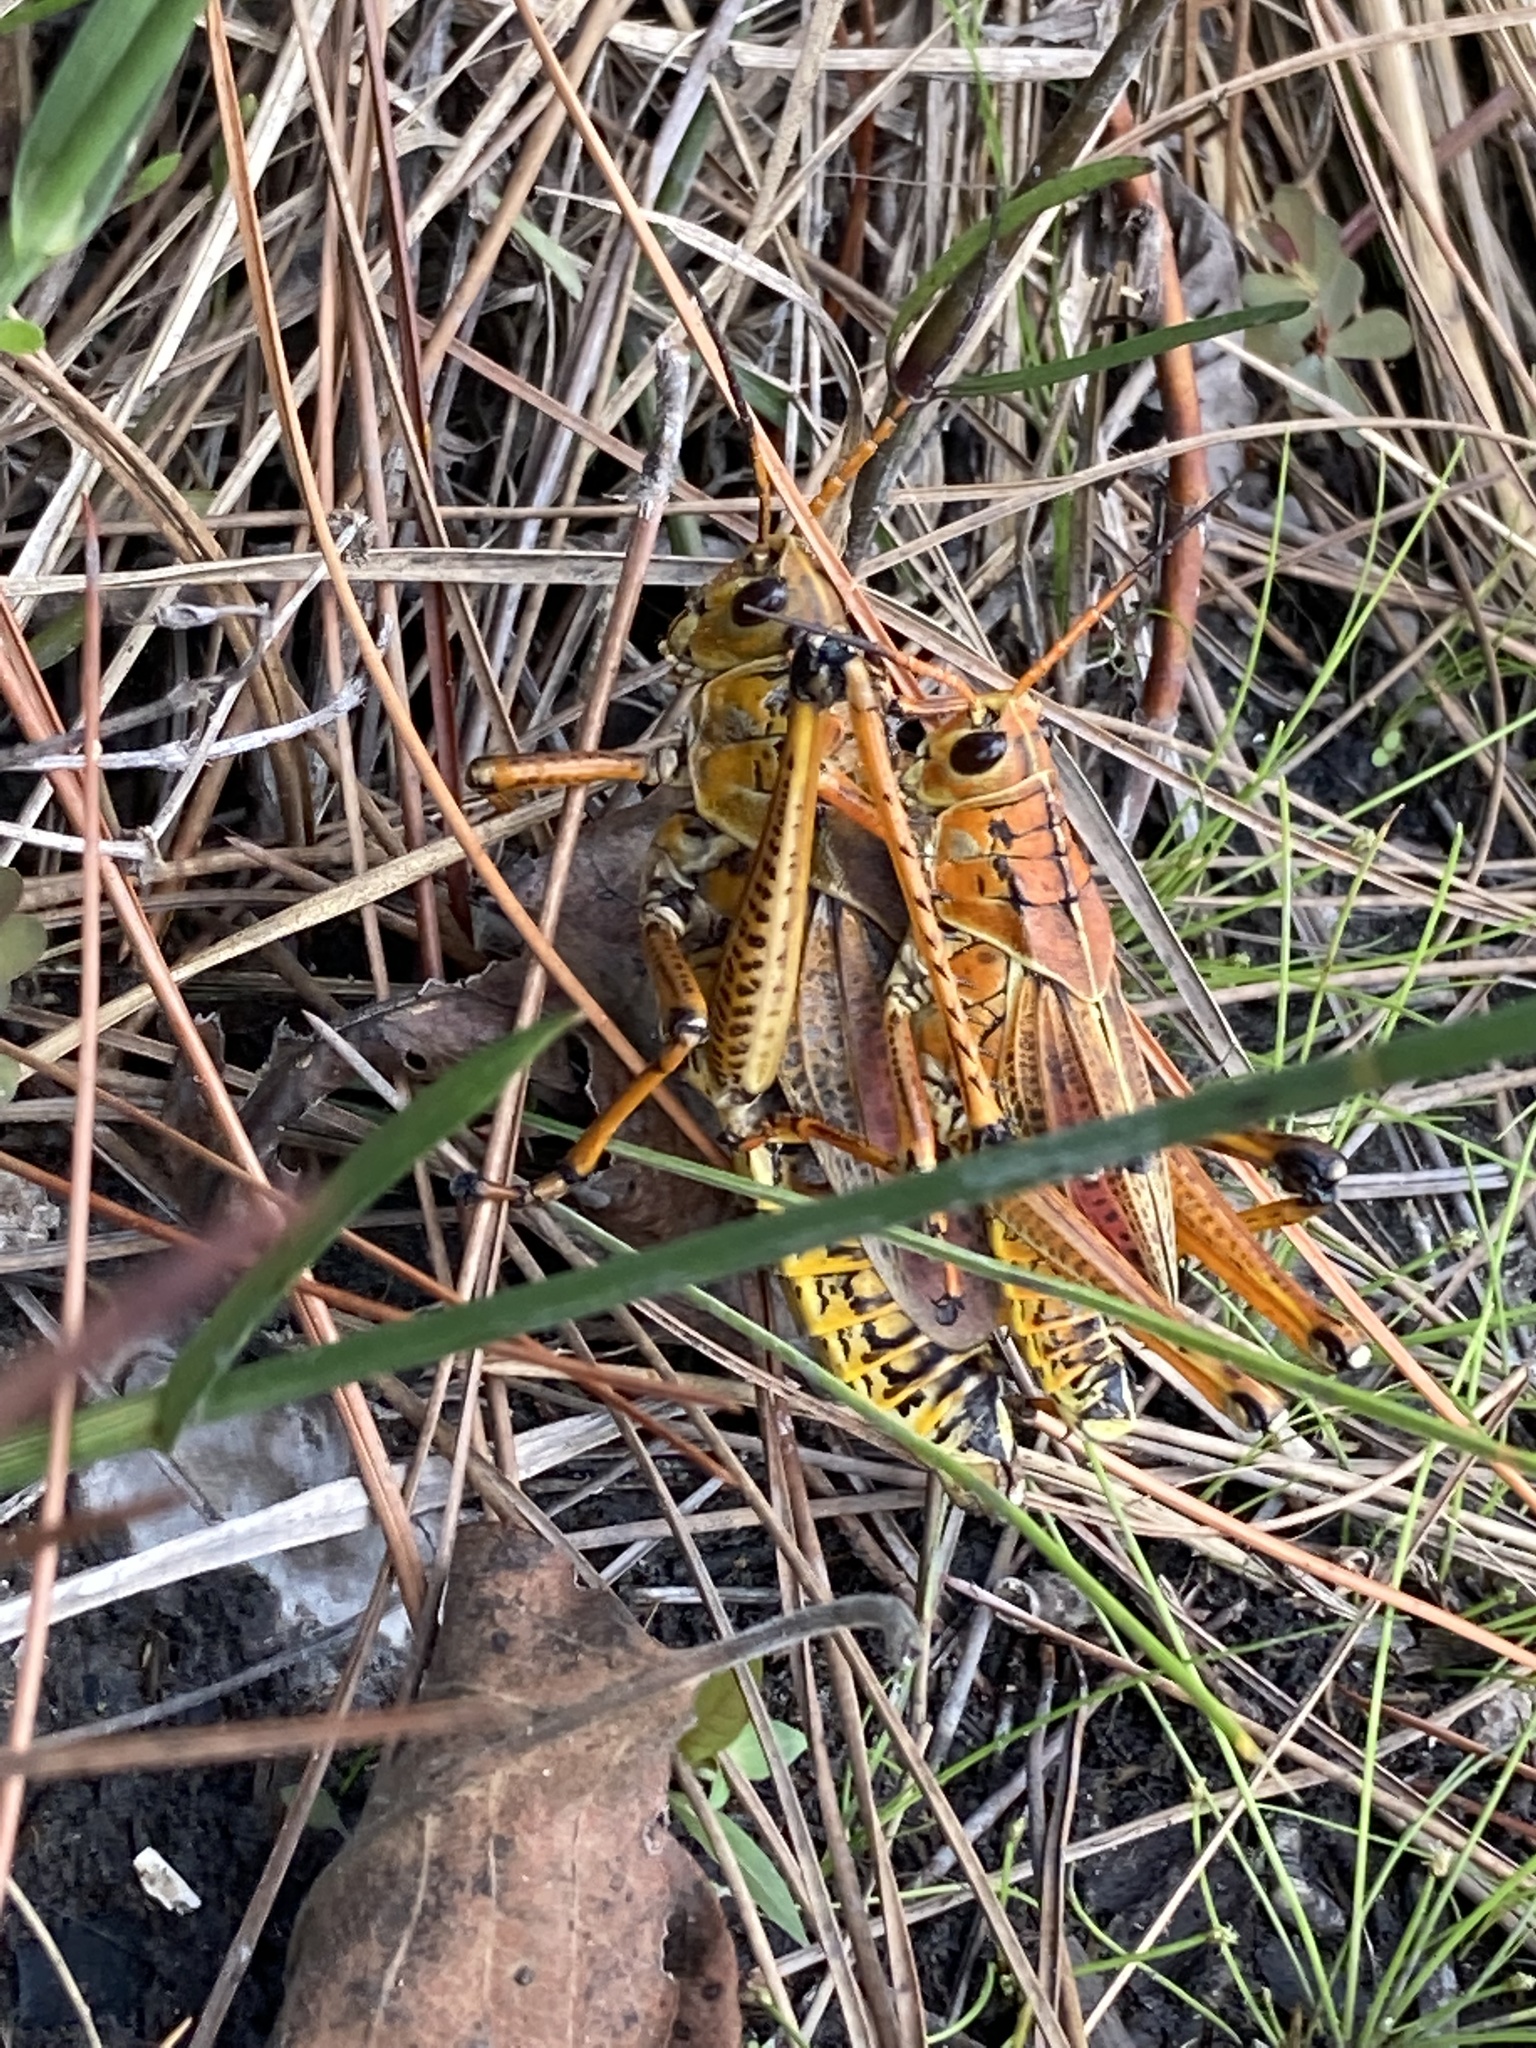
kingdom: Animalia
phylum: Arthropoda
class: Insecta
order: Orthoptera
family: Romaleidae
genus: Romalea
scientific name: Romalea microptera
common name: Eastern lubber grasshopper
